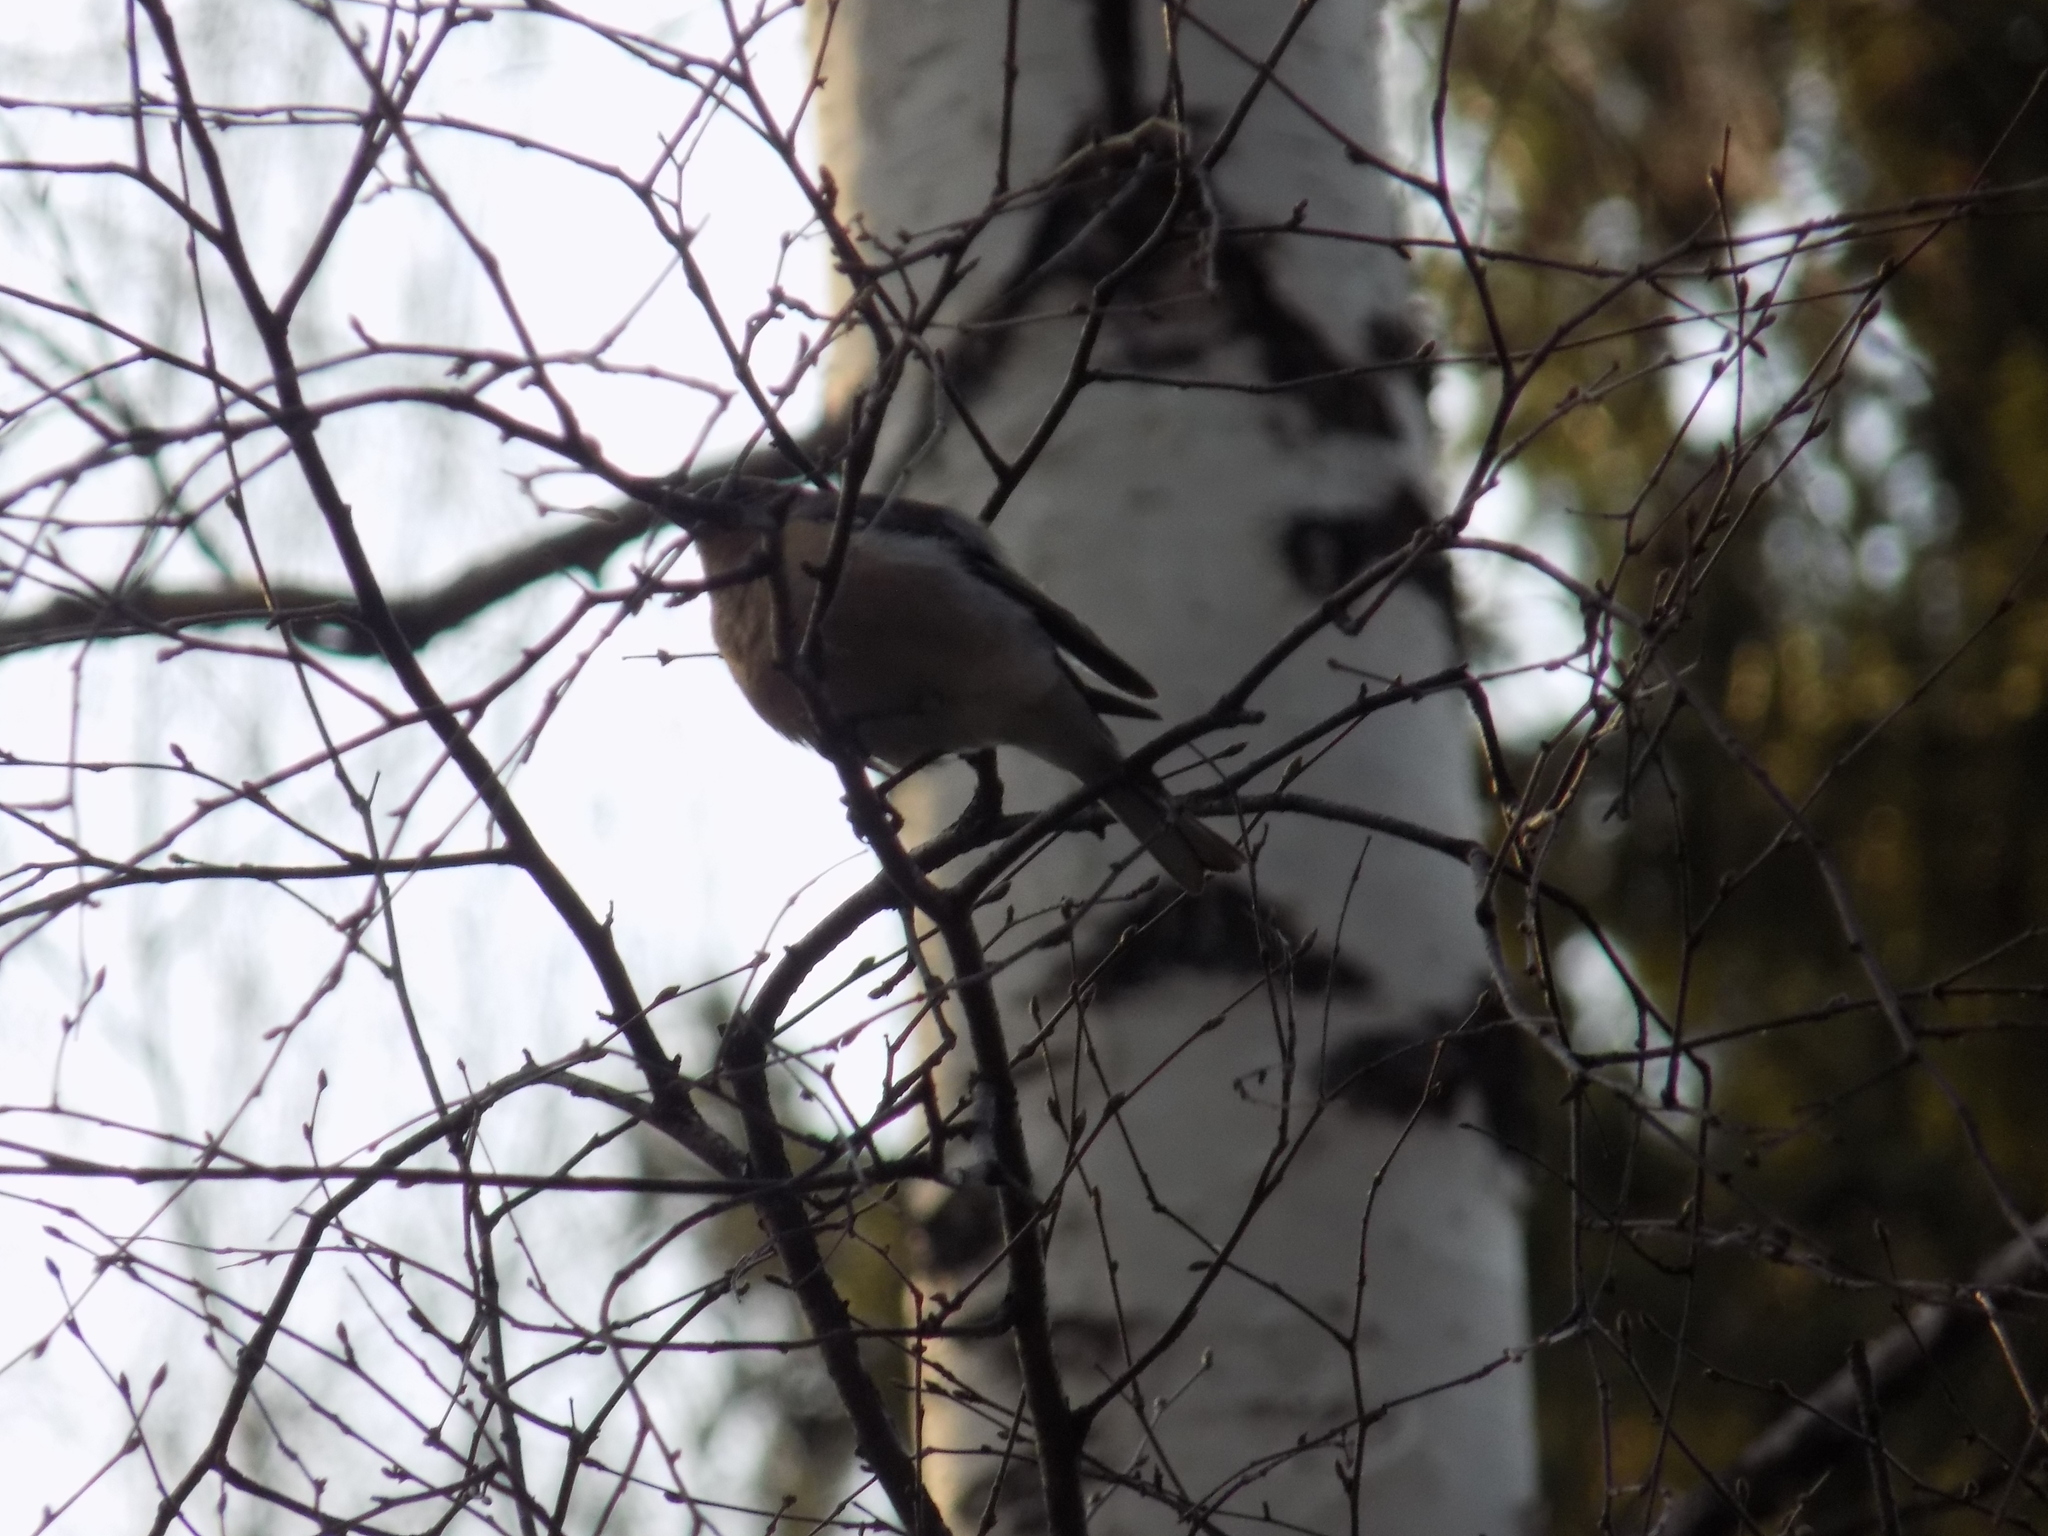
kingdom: Animalia
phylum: Chordata
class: Aves
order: Passeriformes
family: Fringillidae
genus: Fringilla
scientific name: Fringilla coelebs
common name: Common chaffinch
